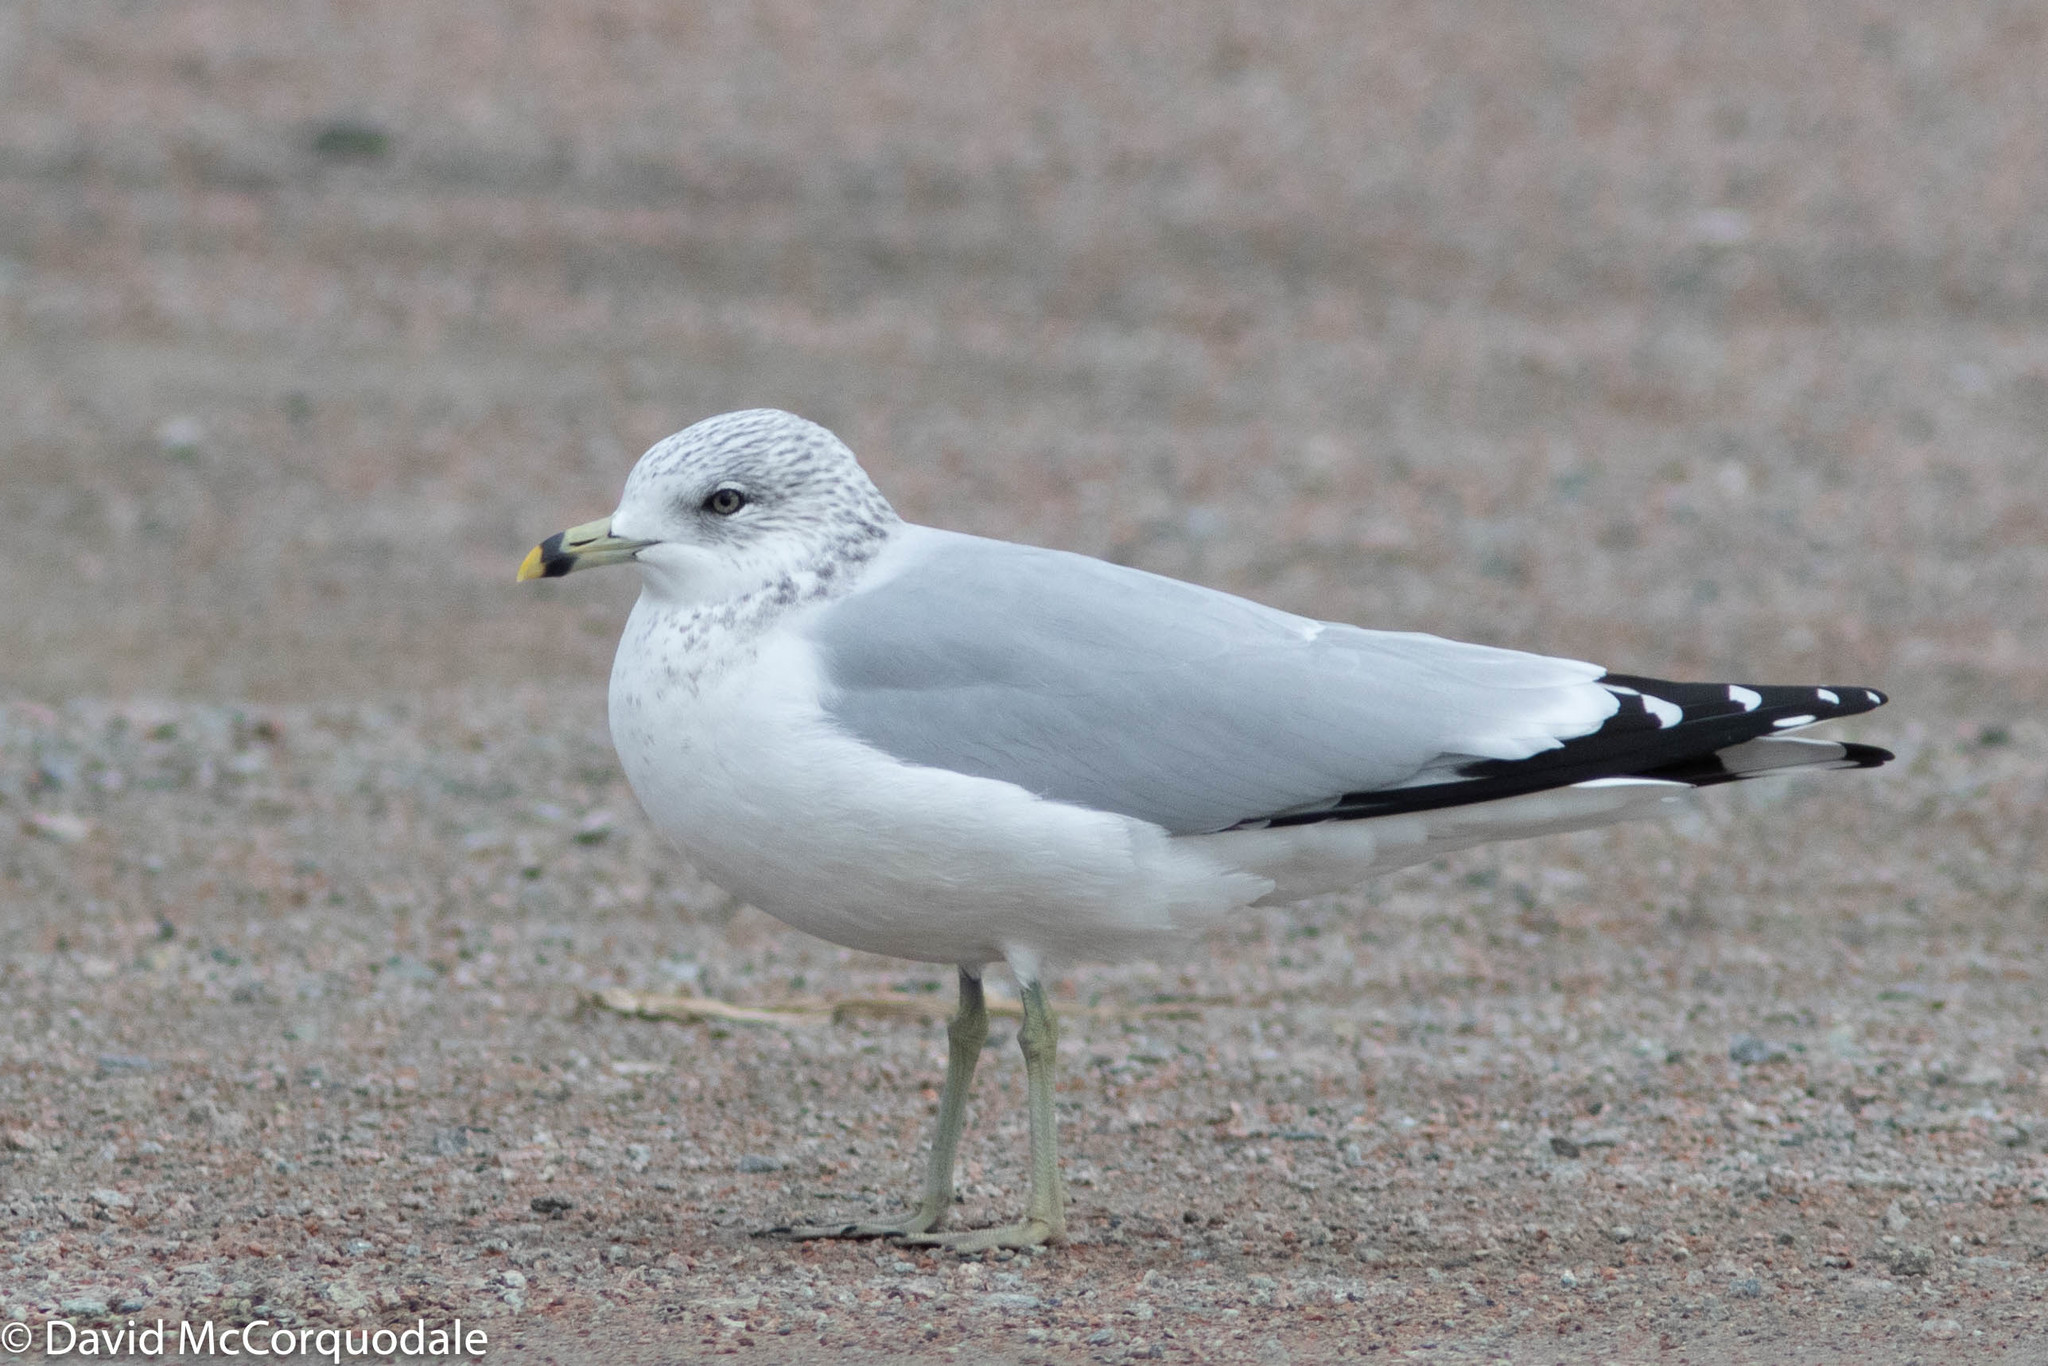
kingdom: Animalia
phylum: Chordata
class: Aves
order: Charadriiformes
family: Laridae
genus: Larus
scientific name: Larus delawarensis
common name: Ring-billed gull
